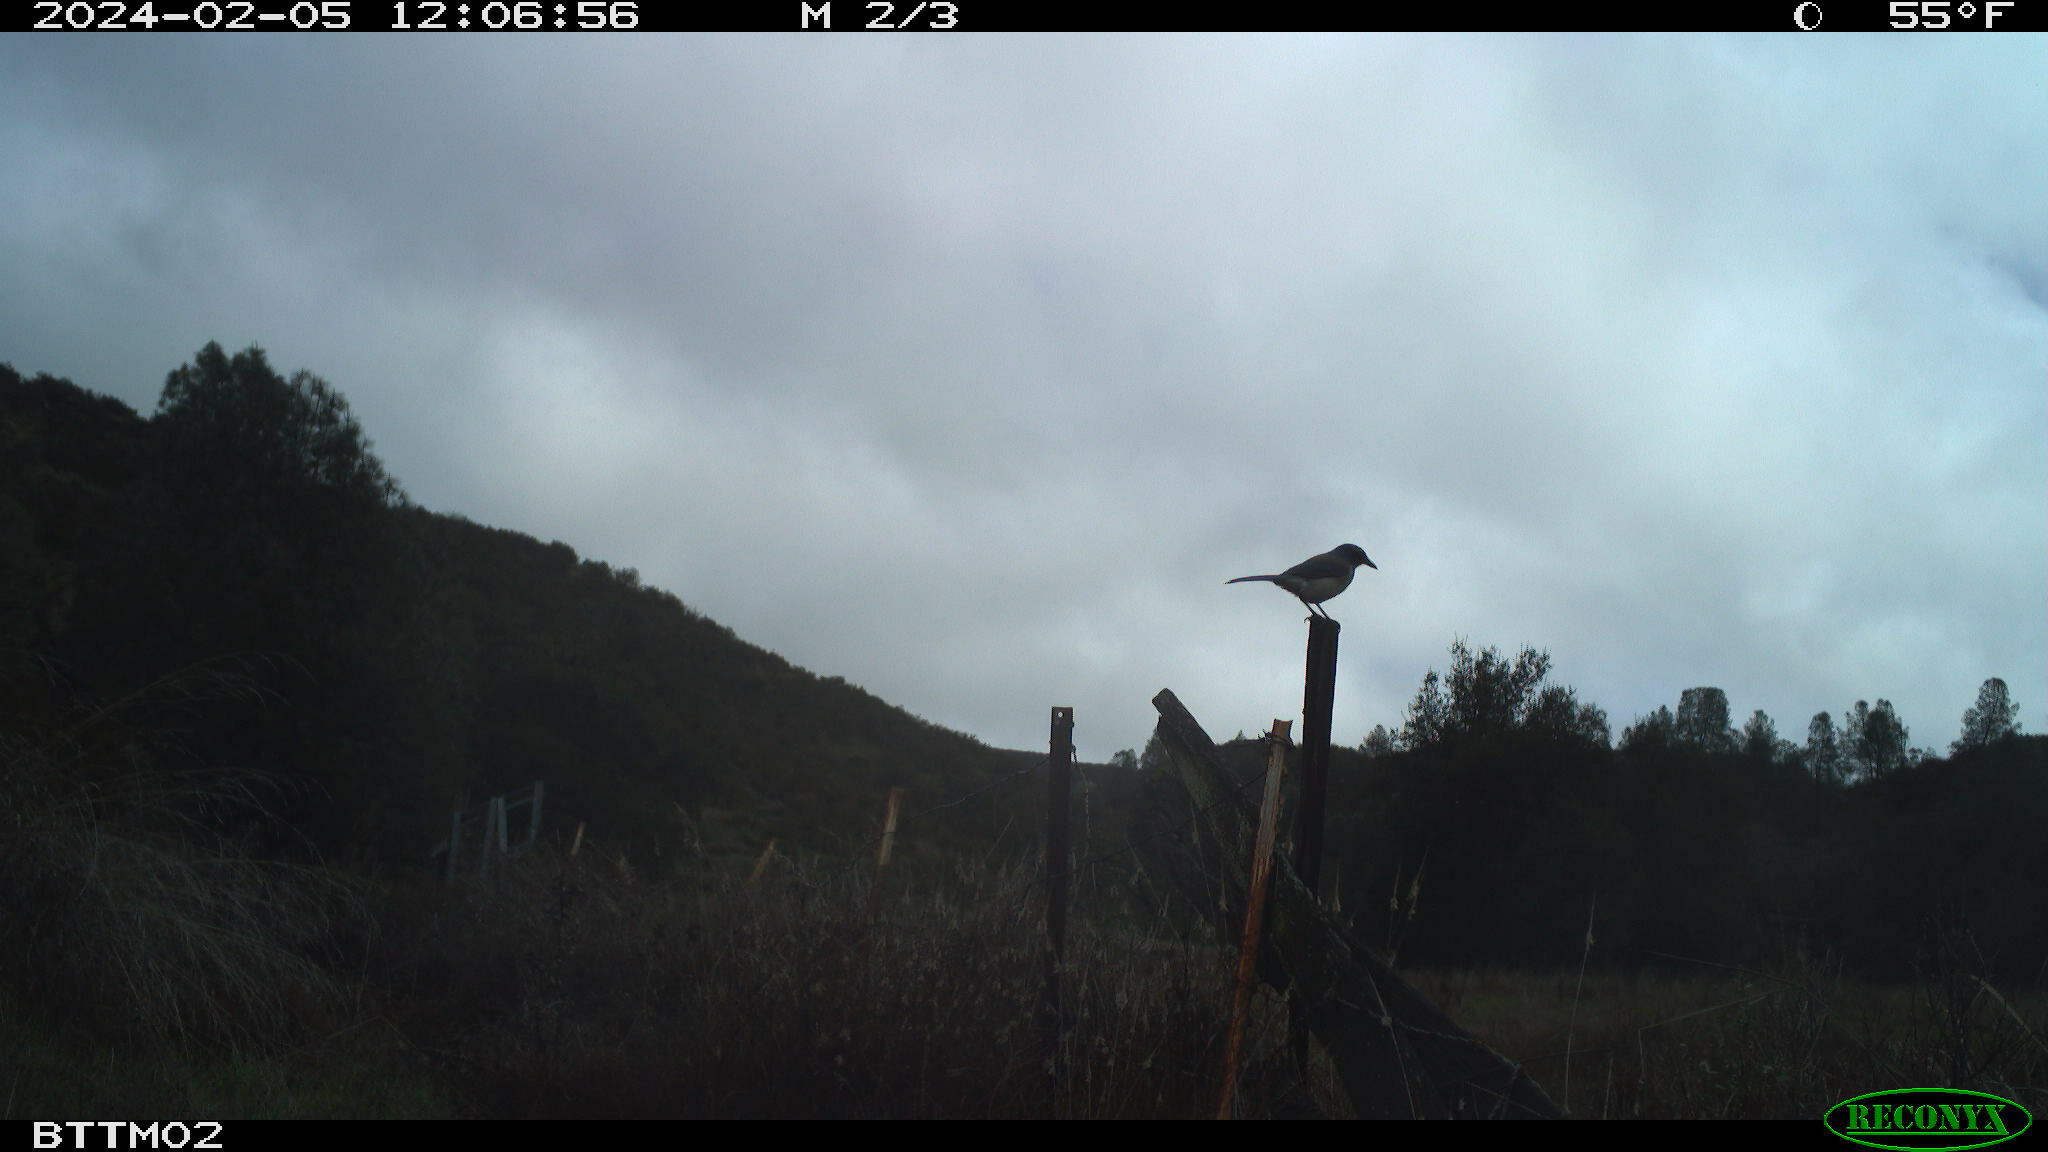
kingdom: Animalia
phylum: Chordata
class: Aves
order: Passeriformes
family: Corvidae
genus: Aphelocoma
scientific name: Aphelocoma californica
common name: California scrub-jay
